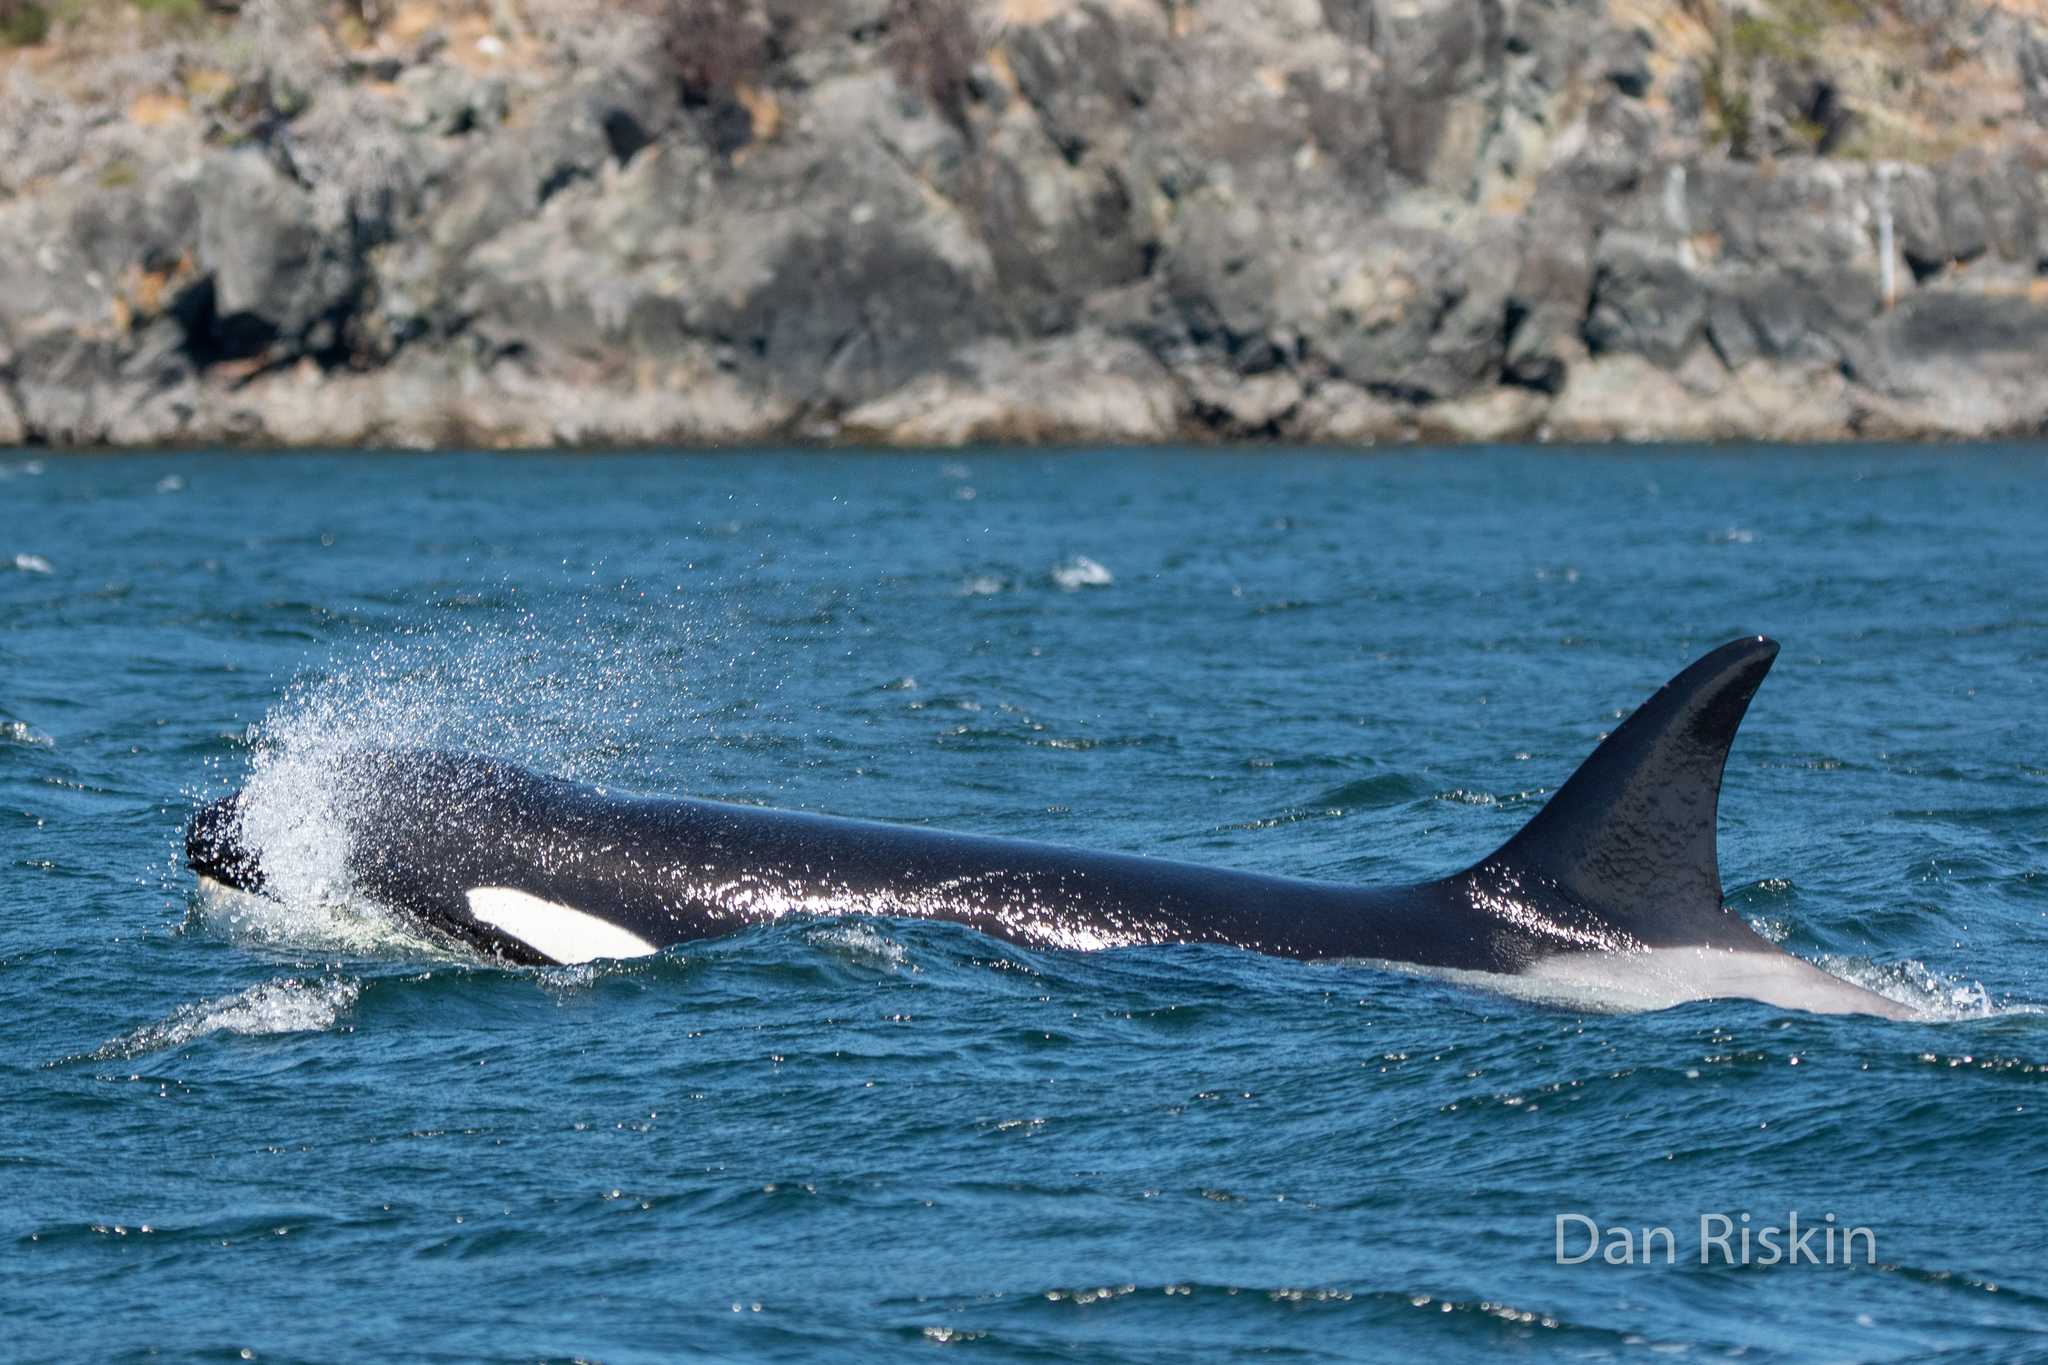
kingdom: Animalia
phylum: Chordata
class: Mammalia
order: Cetacea
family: Delphinidae
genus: Orcinus
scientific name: Orcinus orca
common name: Killer whale
